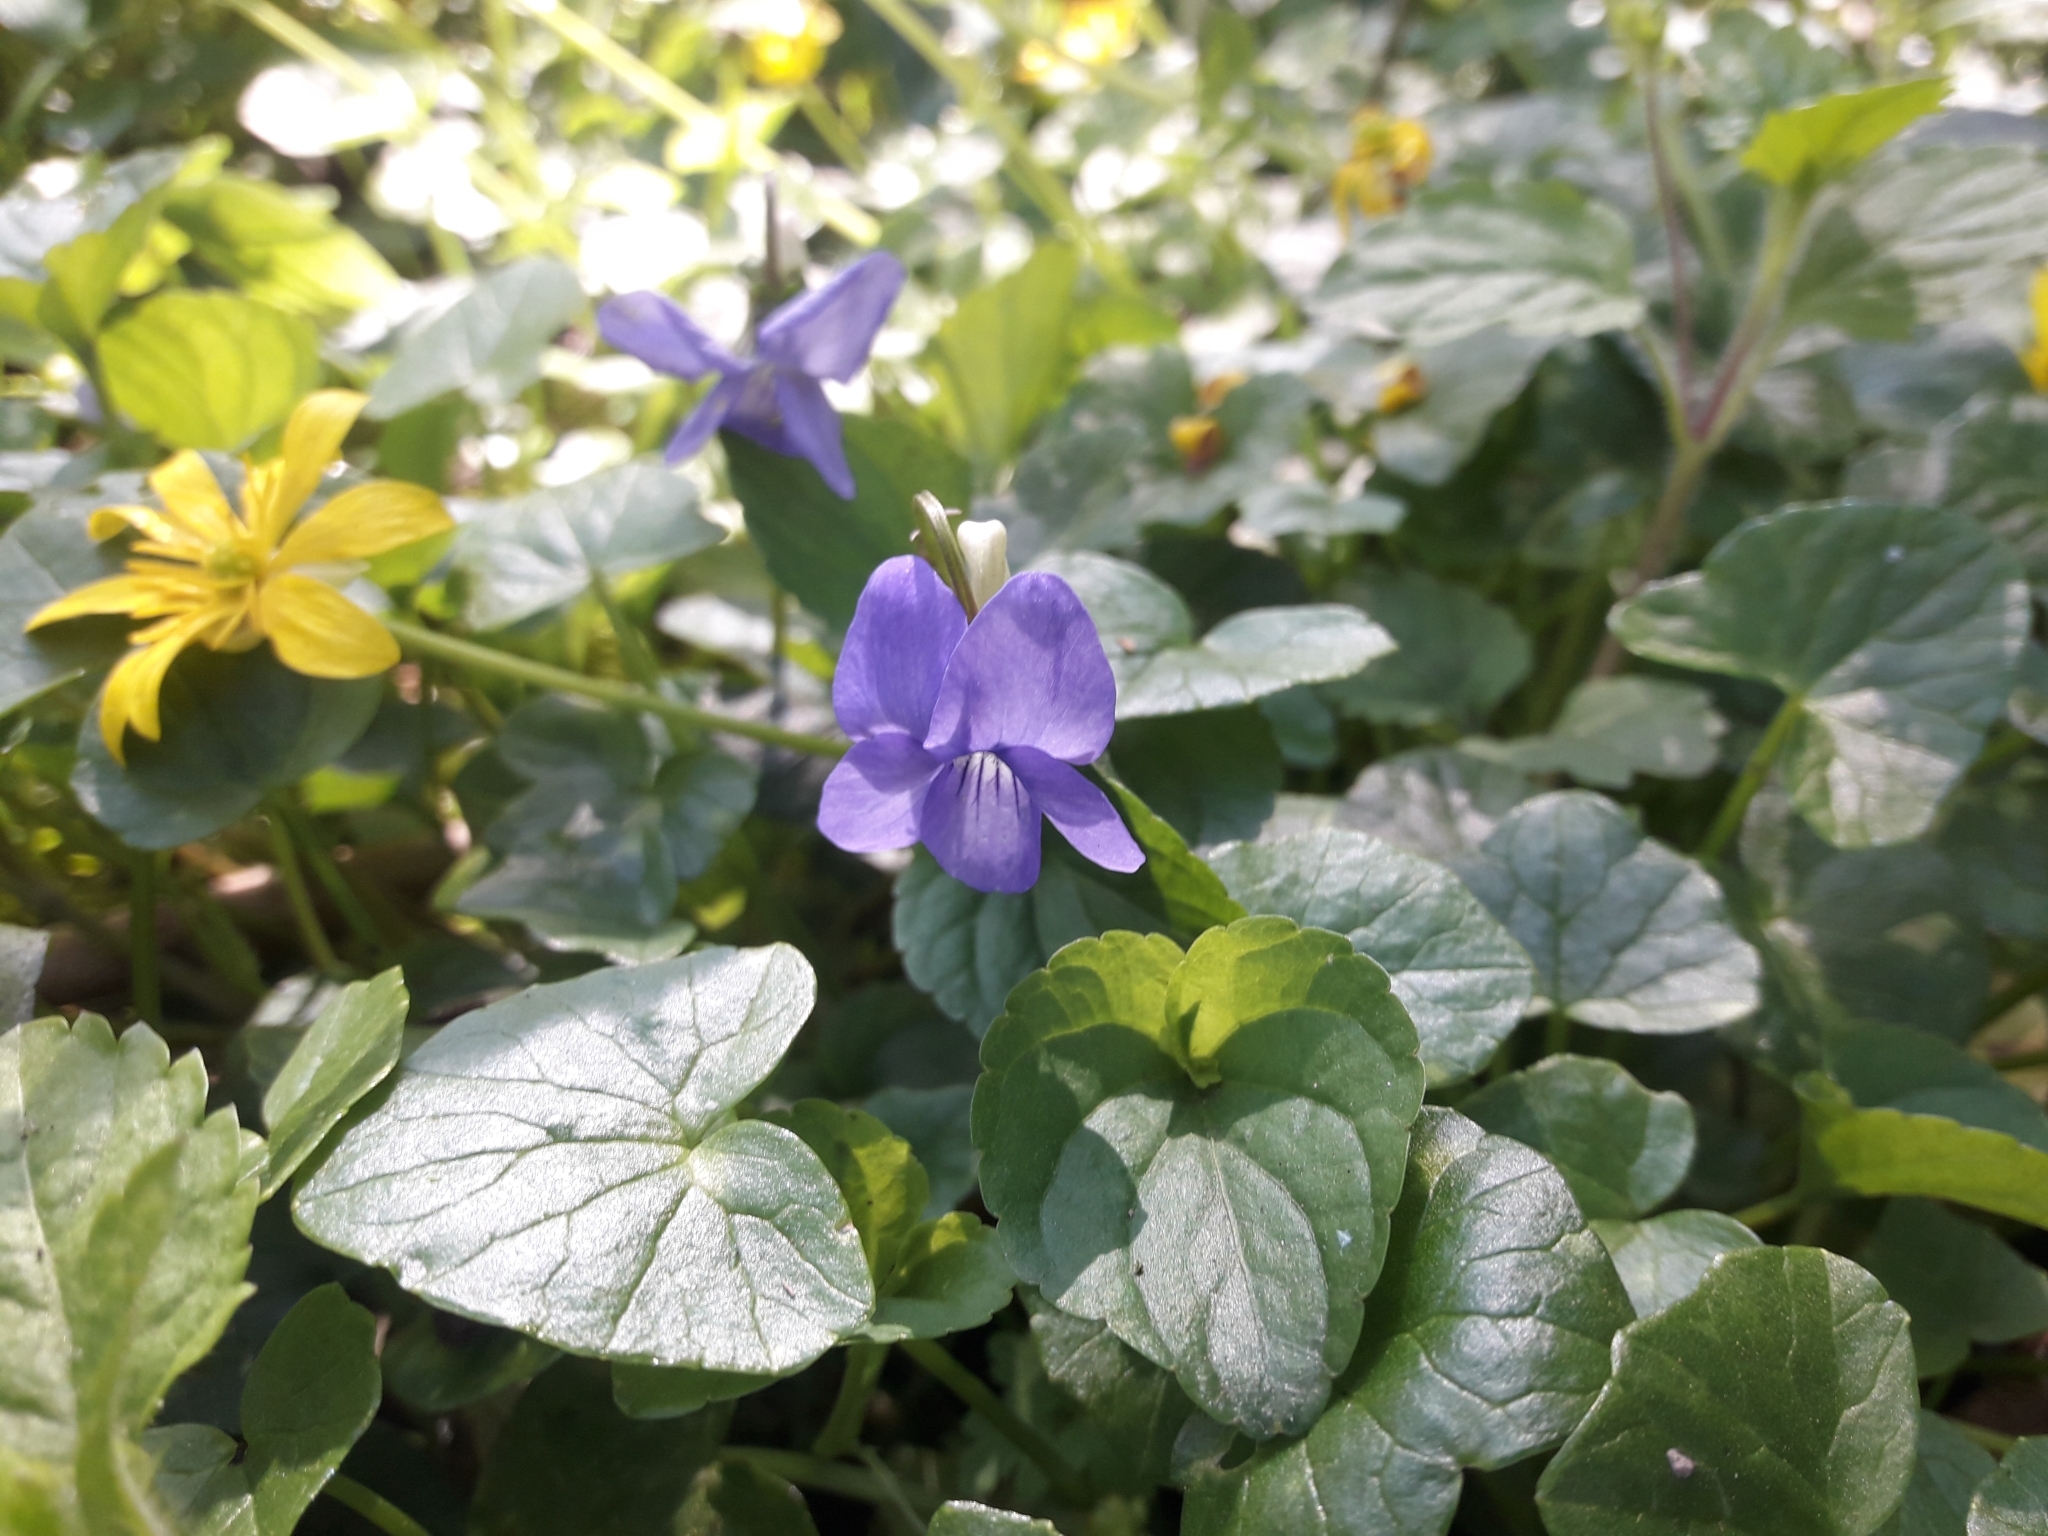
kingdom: Plantae
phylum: Tracheophyta
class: Magnoliopsida
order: Malpighiales
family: Violaceae
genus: Viola
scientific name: Viola riviniana
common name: Common dog-violet
